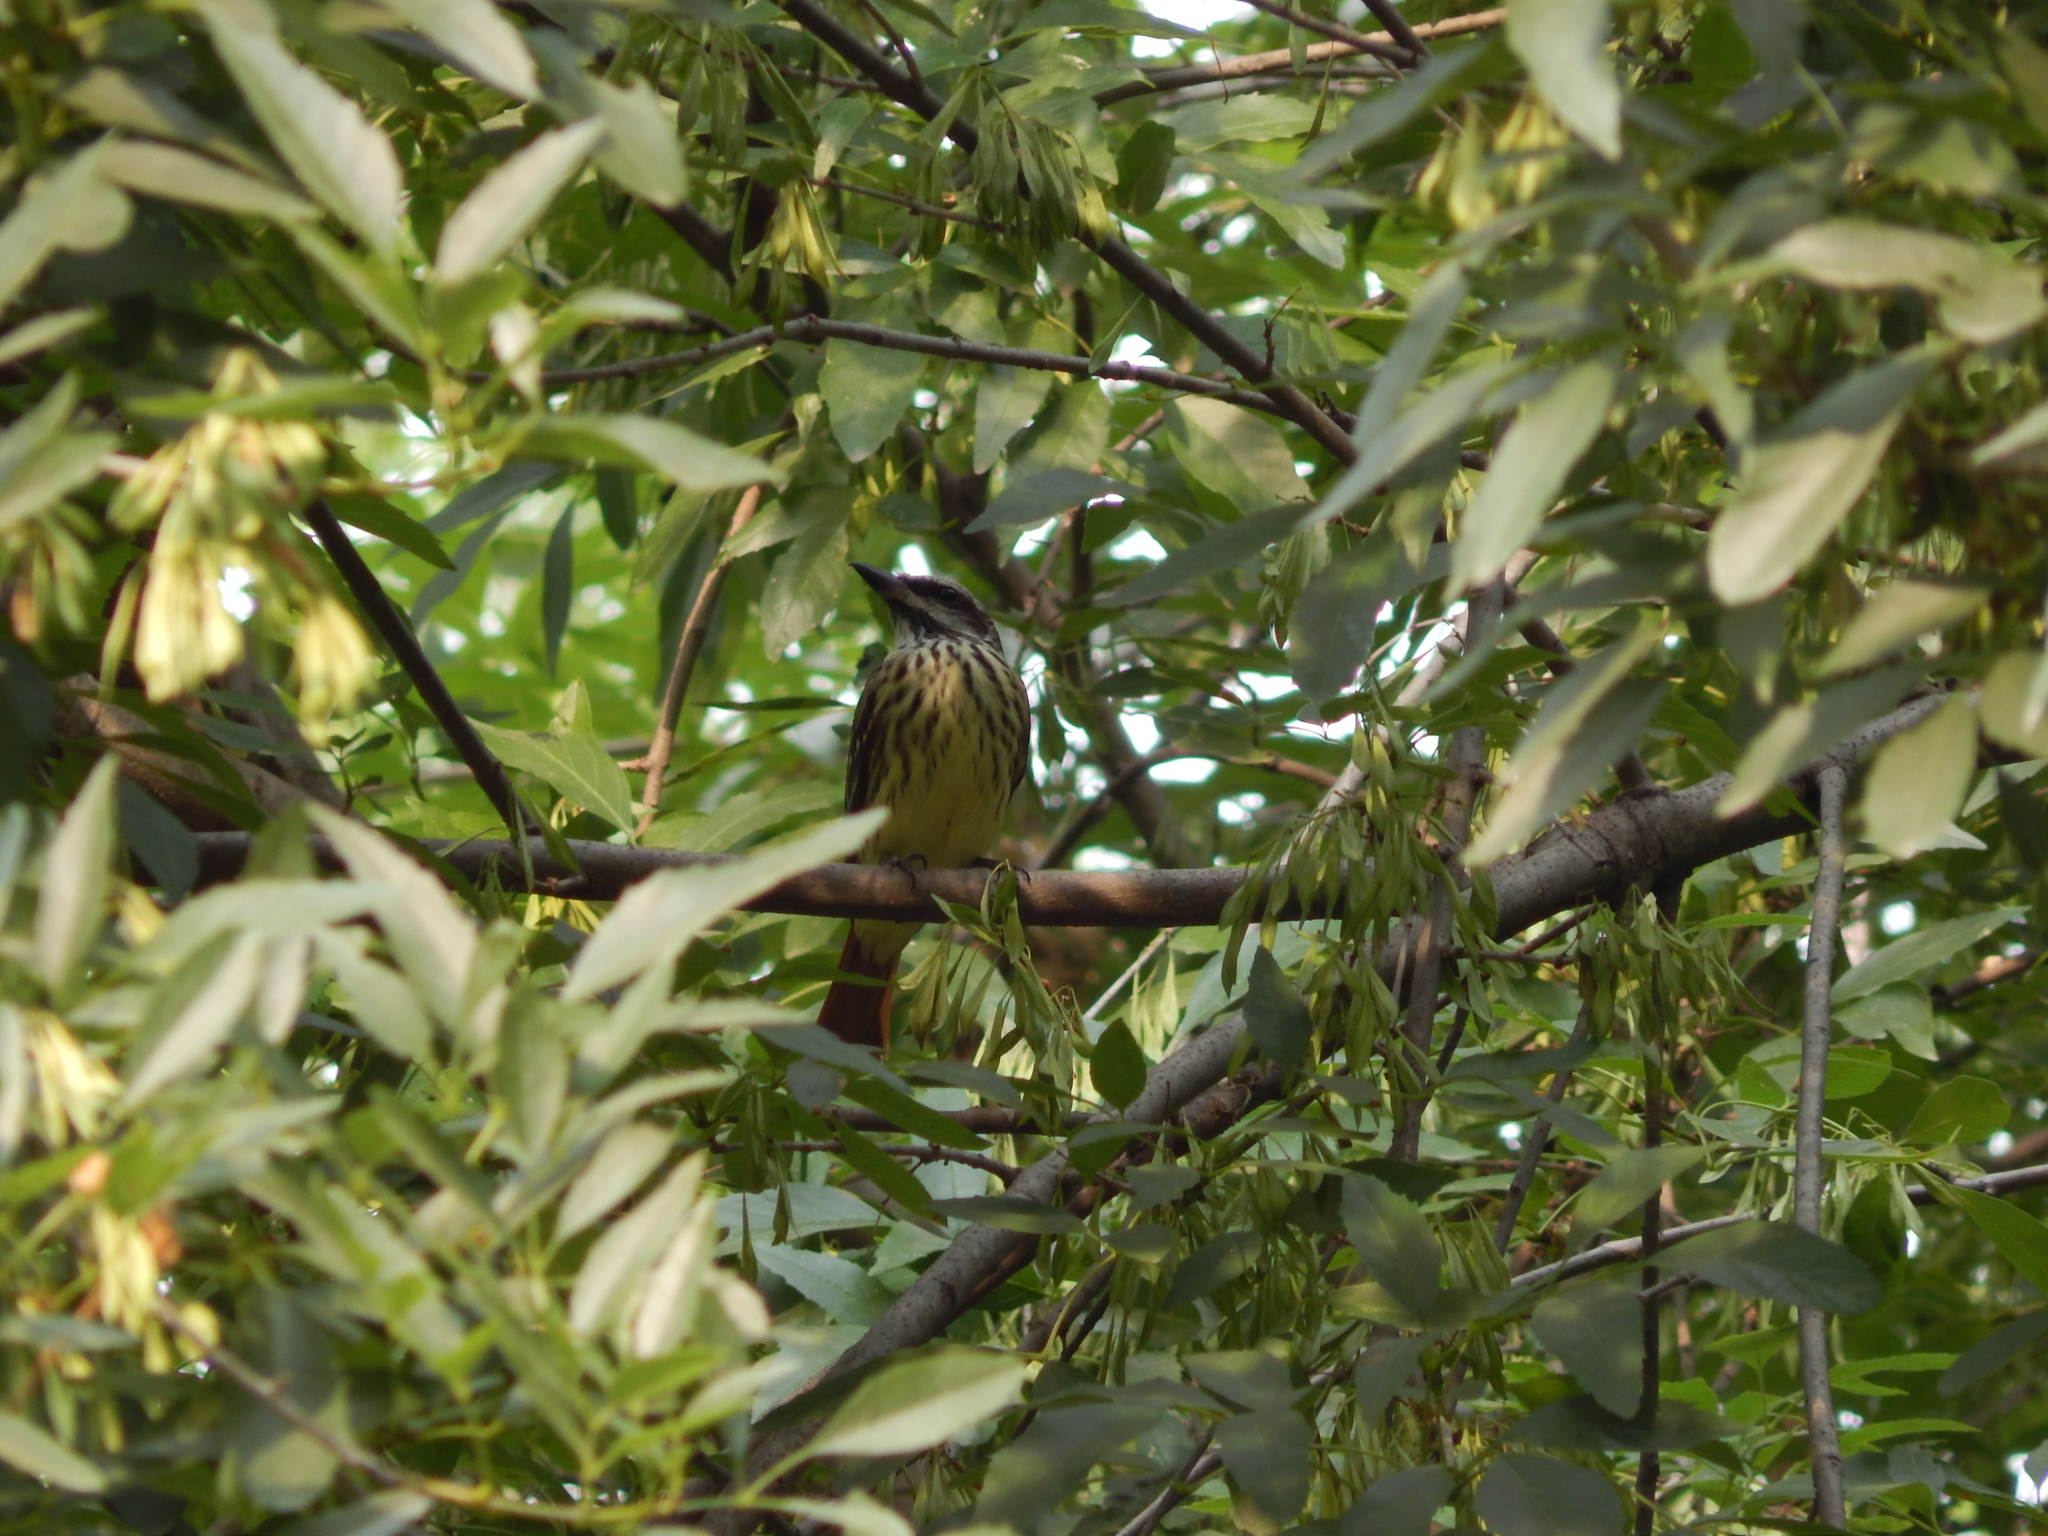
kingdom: Animalia
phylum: Chordata
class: Aves
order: Passeriformes
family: Tyrannidae
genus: Myiodynastes
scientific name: Myiodynastes luteiventris
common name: Sulphur-bellied flycatcher
